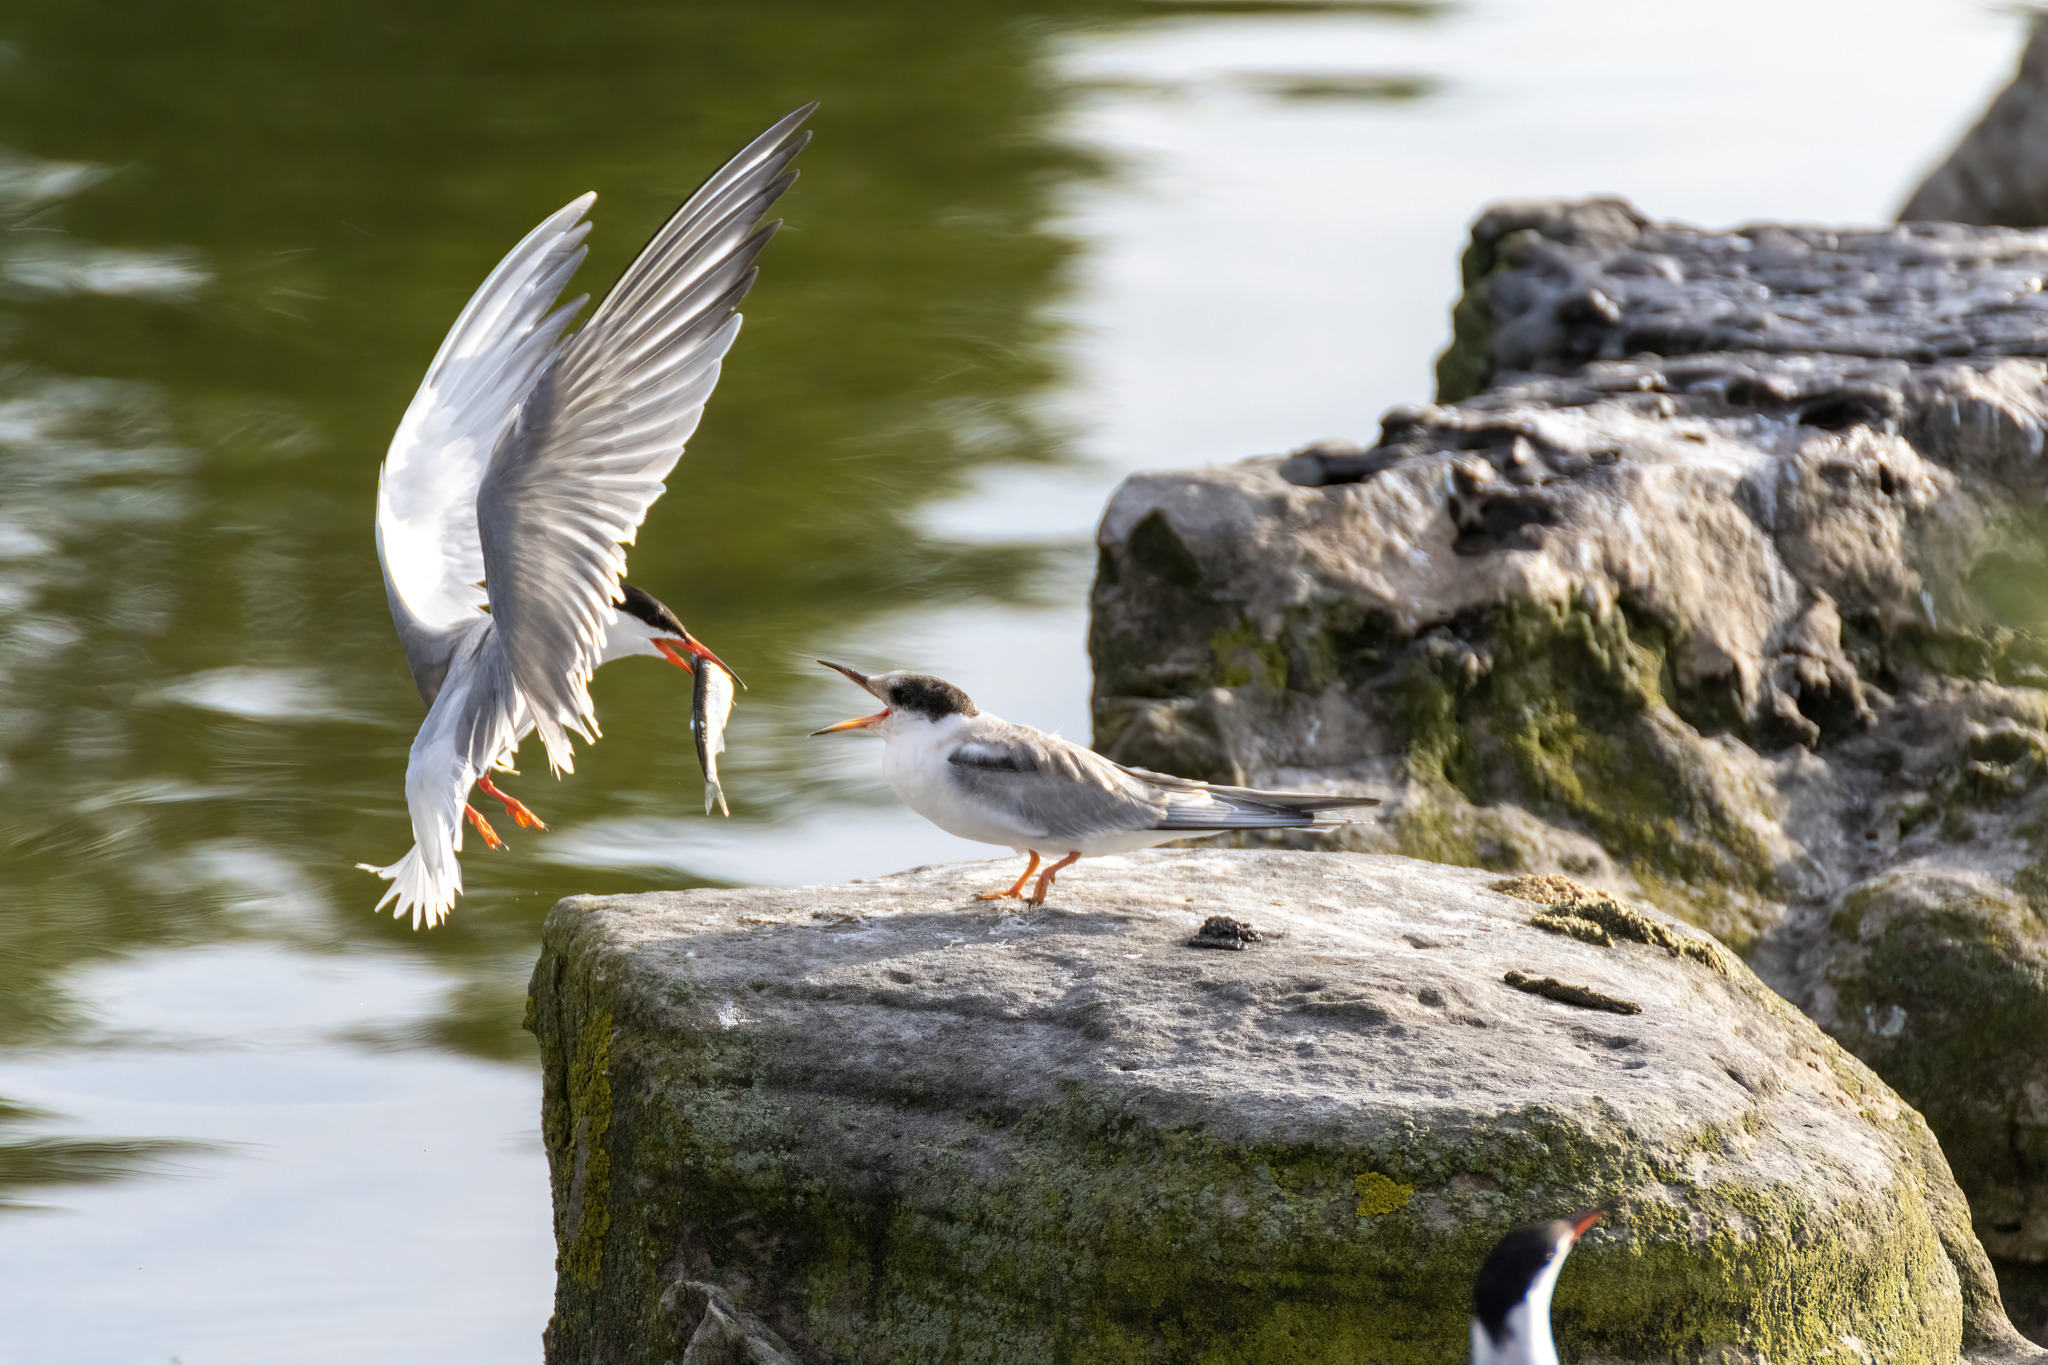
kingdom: Animalia
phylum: Chordata
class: Aves
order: Charadriiformes
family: Laridae
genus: Sterna
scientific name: Sterna hirundo
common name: Common tern
